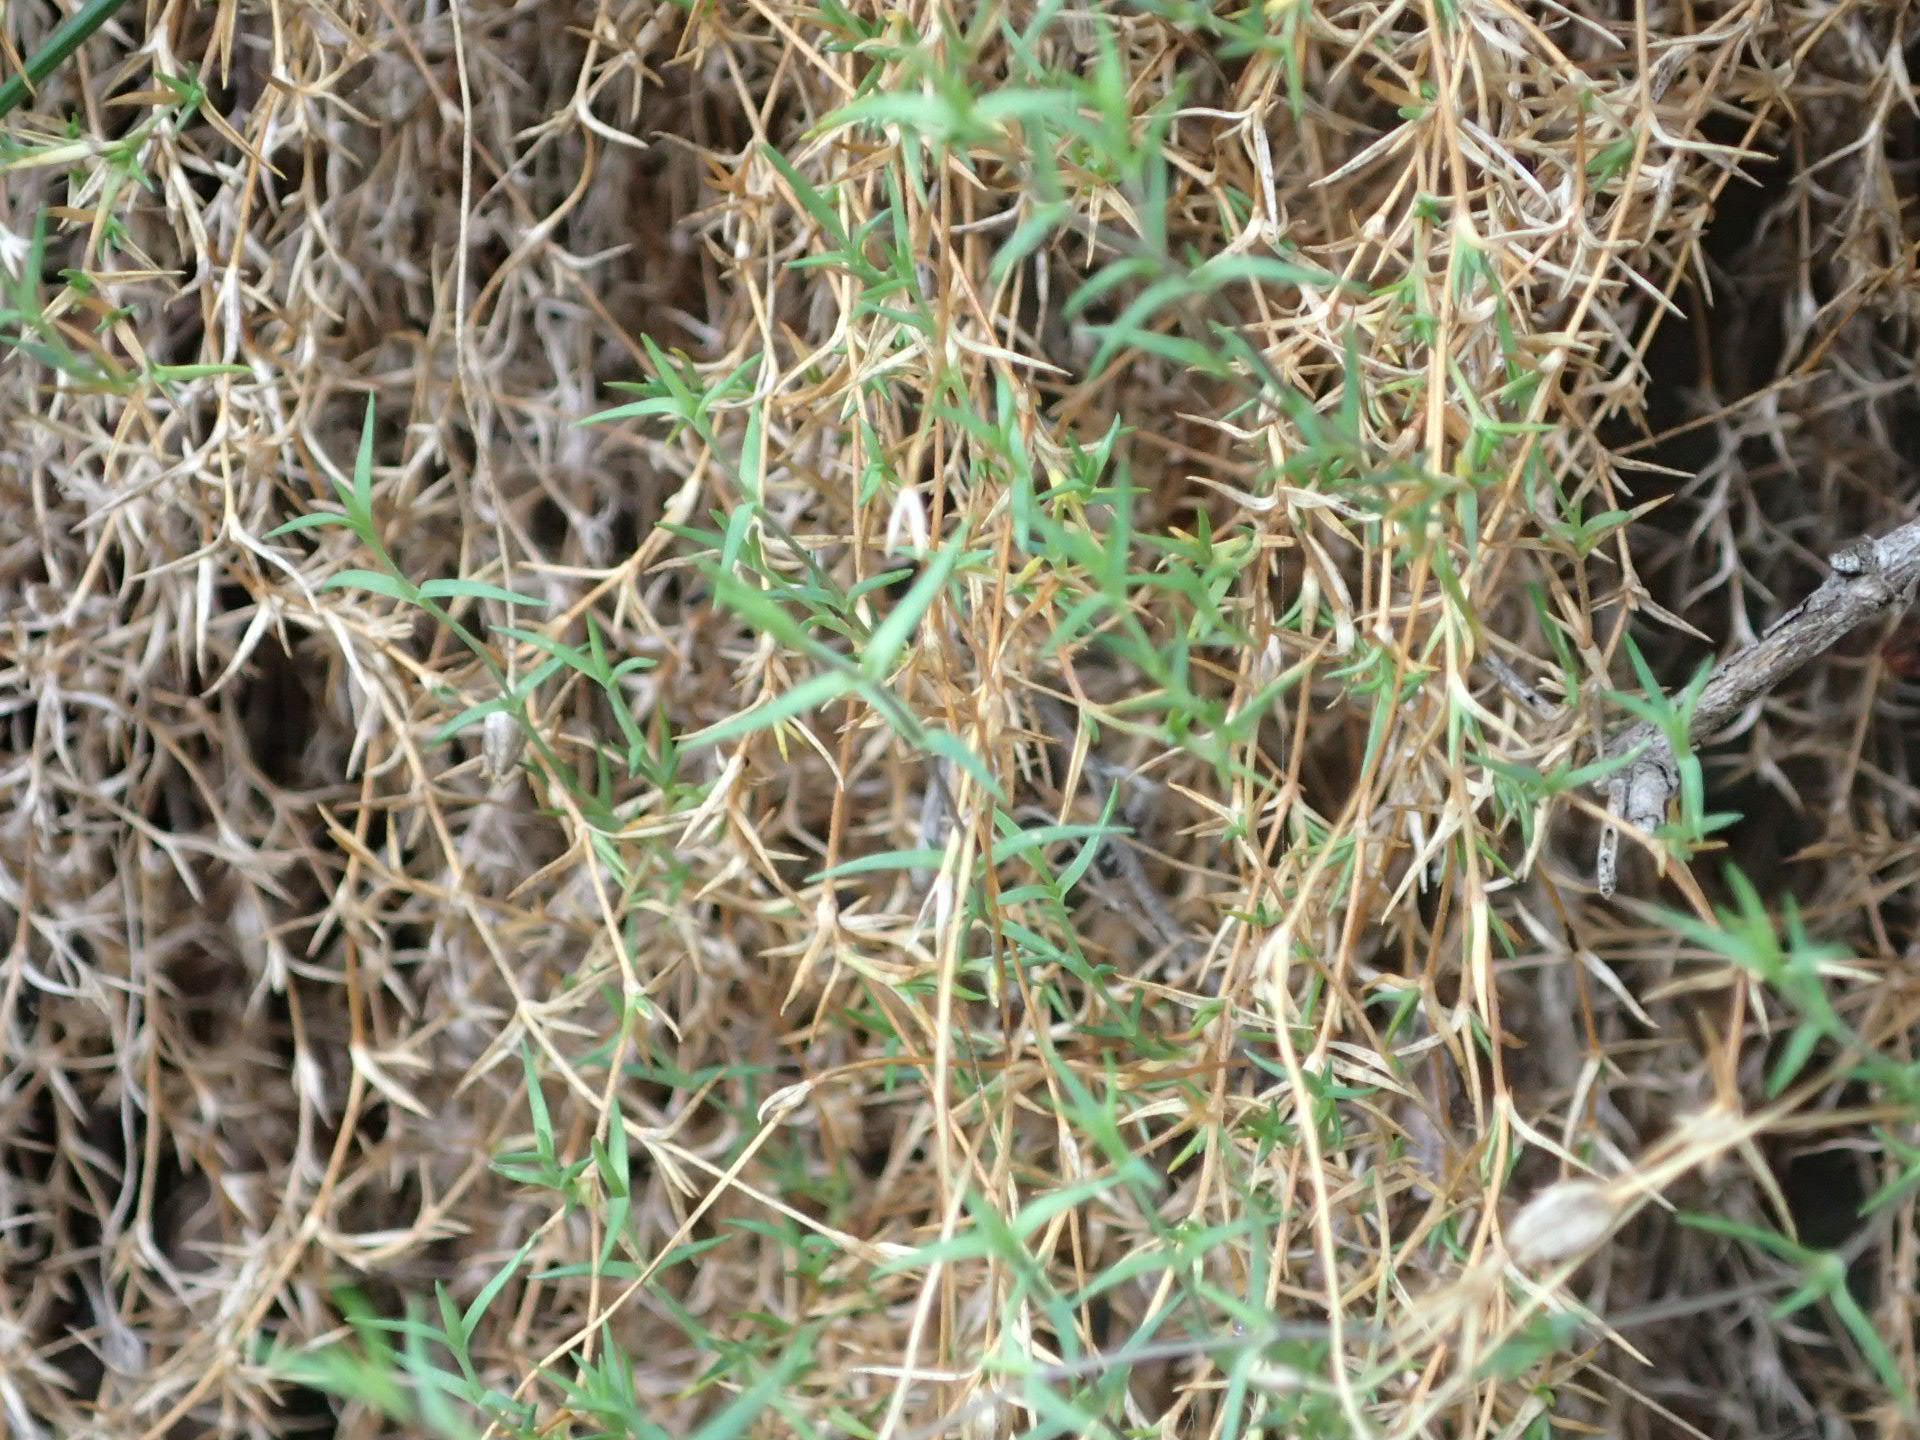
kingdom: Plantae
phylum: Tracheophyta
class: Magnoliopsida
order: Caryophyllales
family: Caryophyllaceae
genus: Stellaria
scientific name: Stellaria gracilenta
